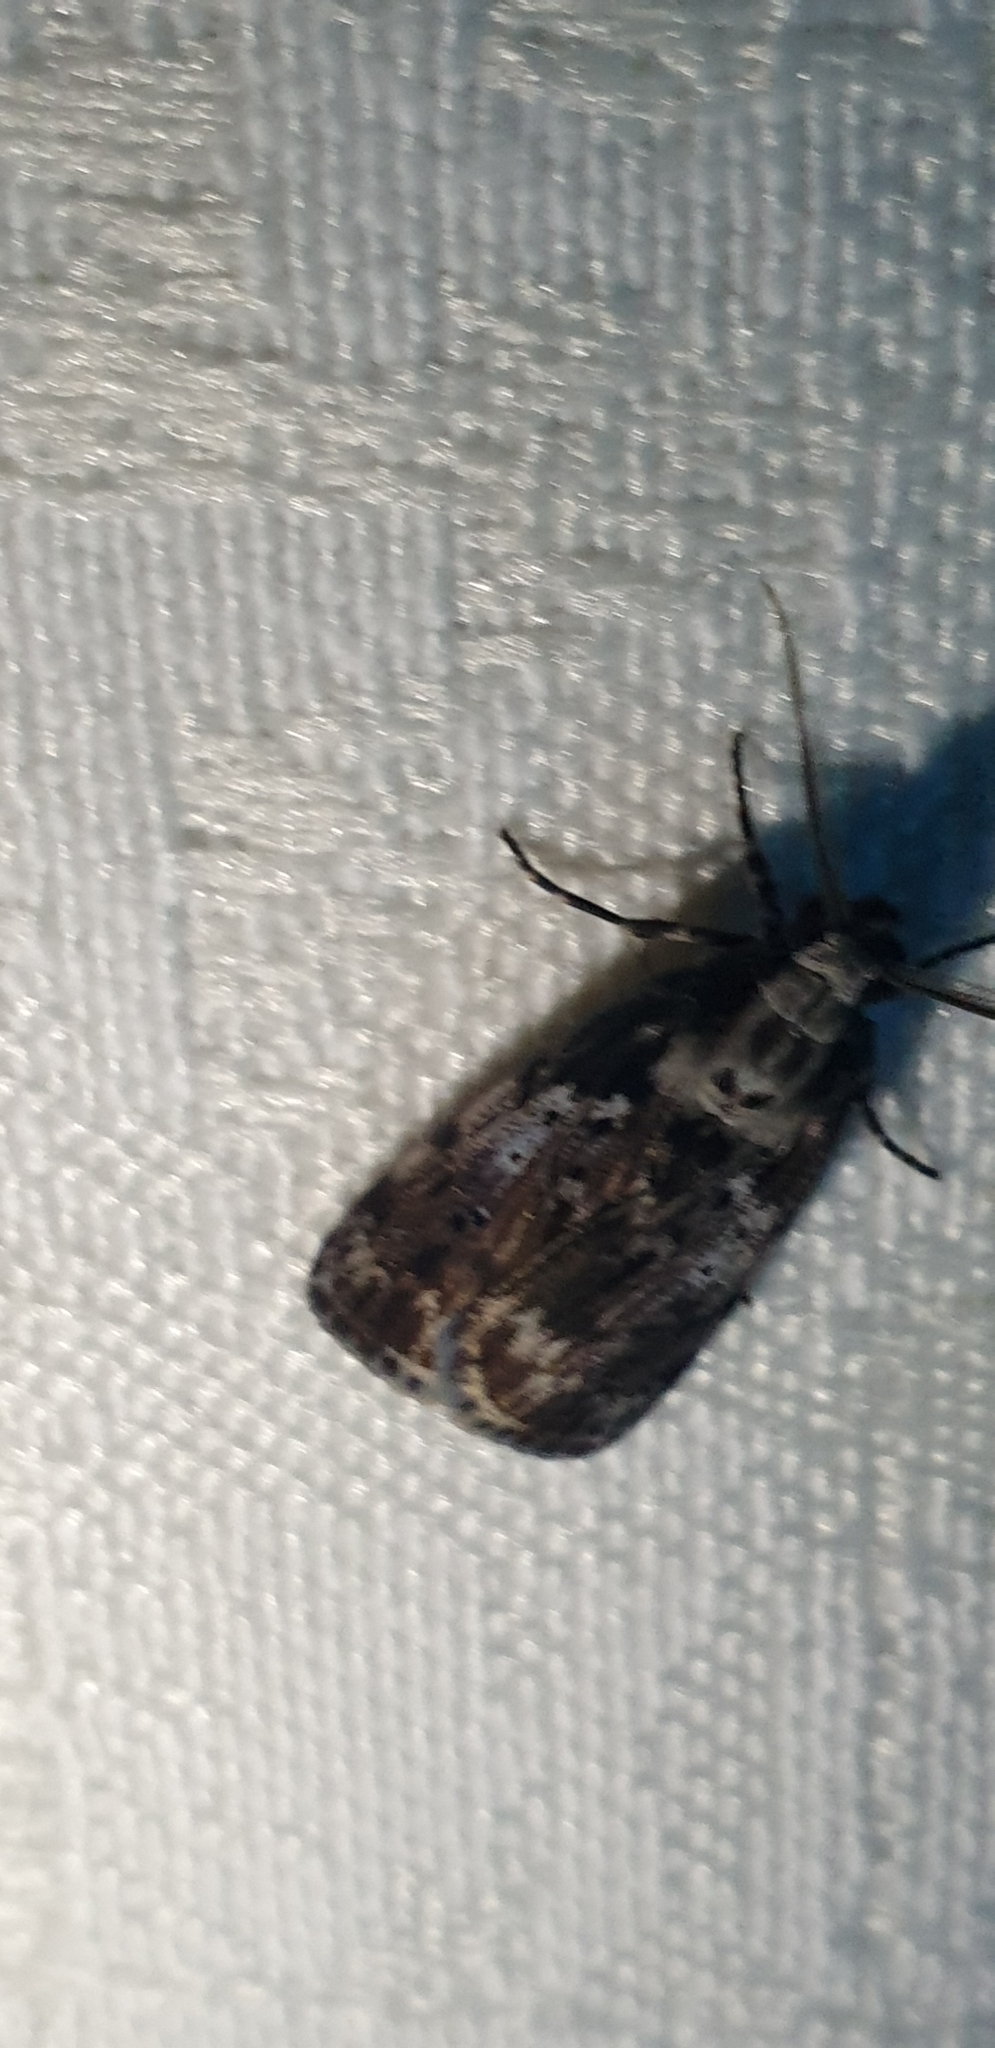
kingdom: Animalia
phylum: Arthropoda
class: Insecta
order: Lepidoptera
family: Erebidae
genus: Digama
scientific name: Digama Sommeria marmorea
